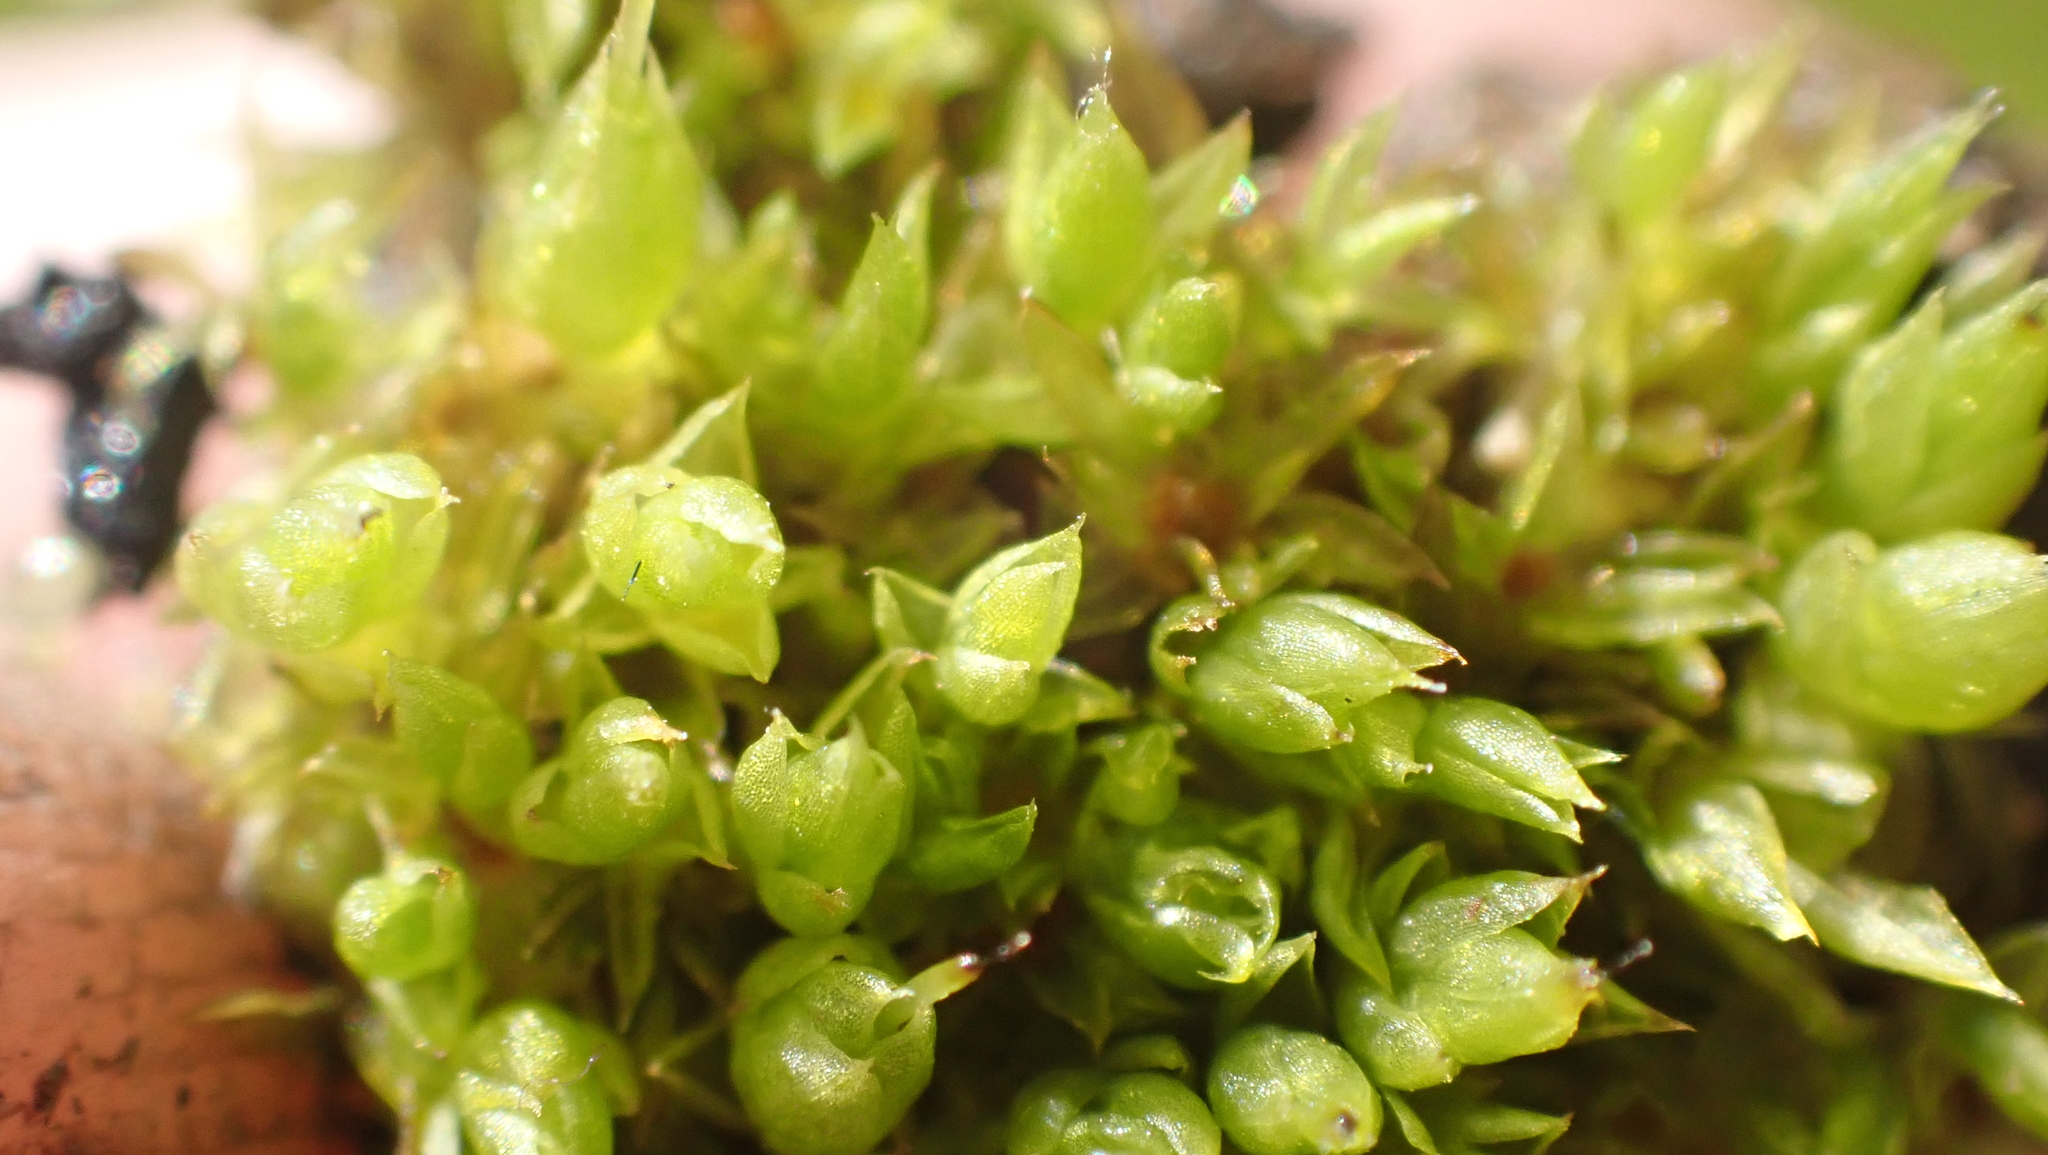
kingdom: Plantae
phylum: Bryophyta
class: Bryopsida
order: Funariales
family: Funariaceae
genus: Funaria
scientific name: Funaria hygrometrica
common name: Common cord moss
